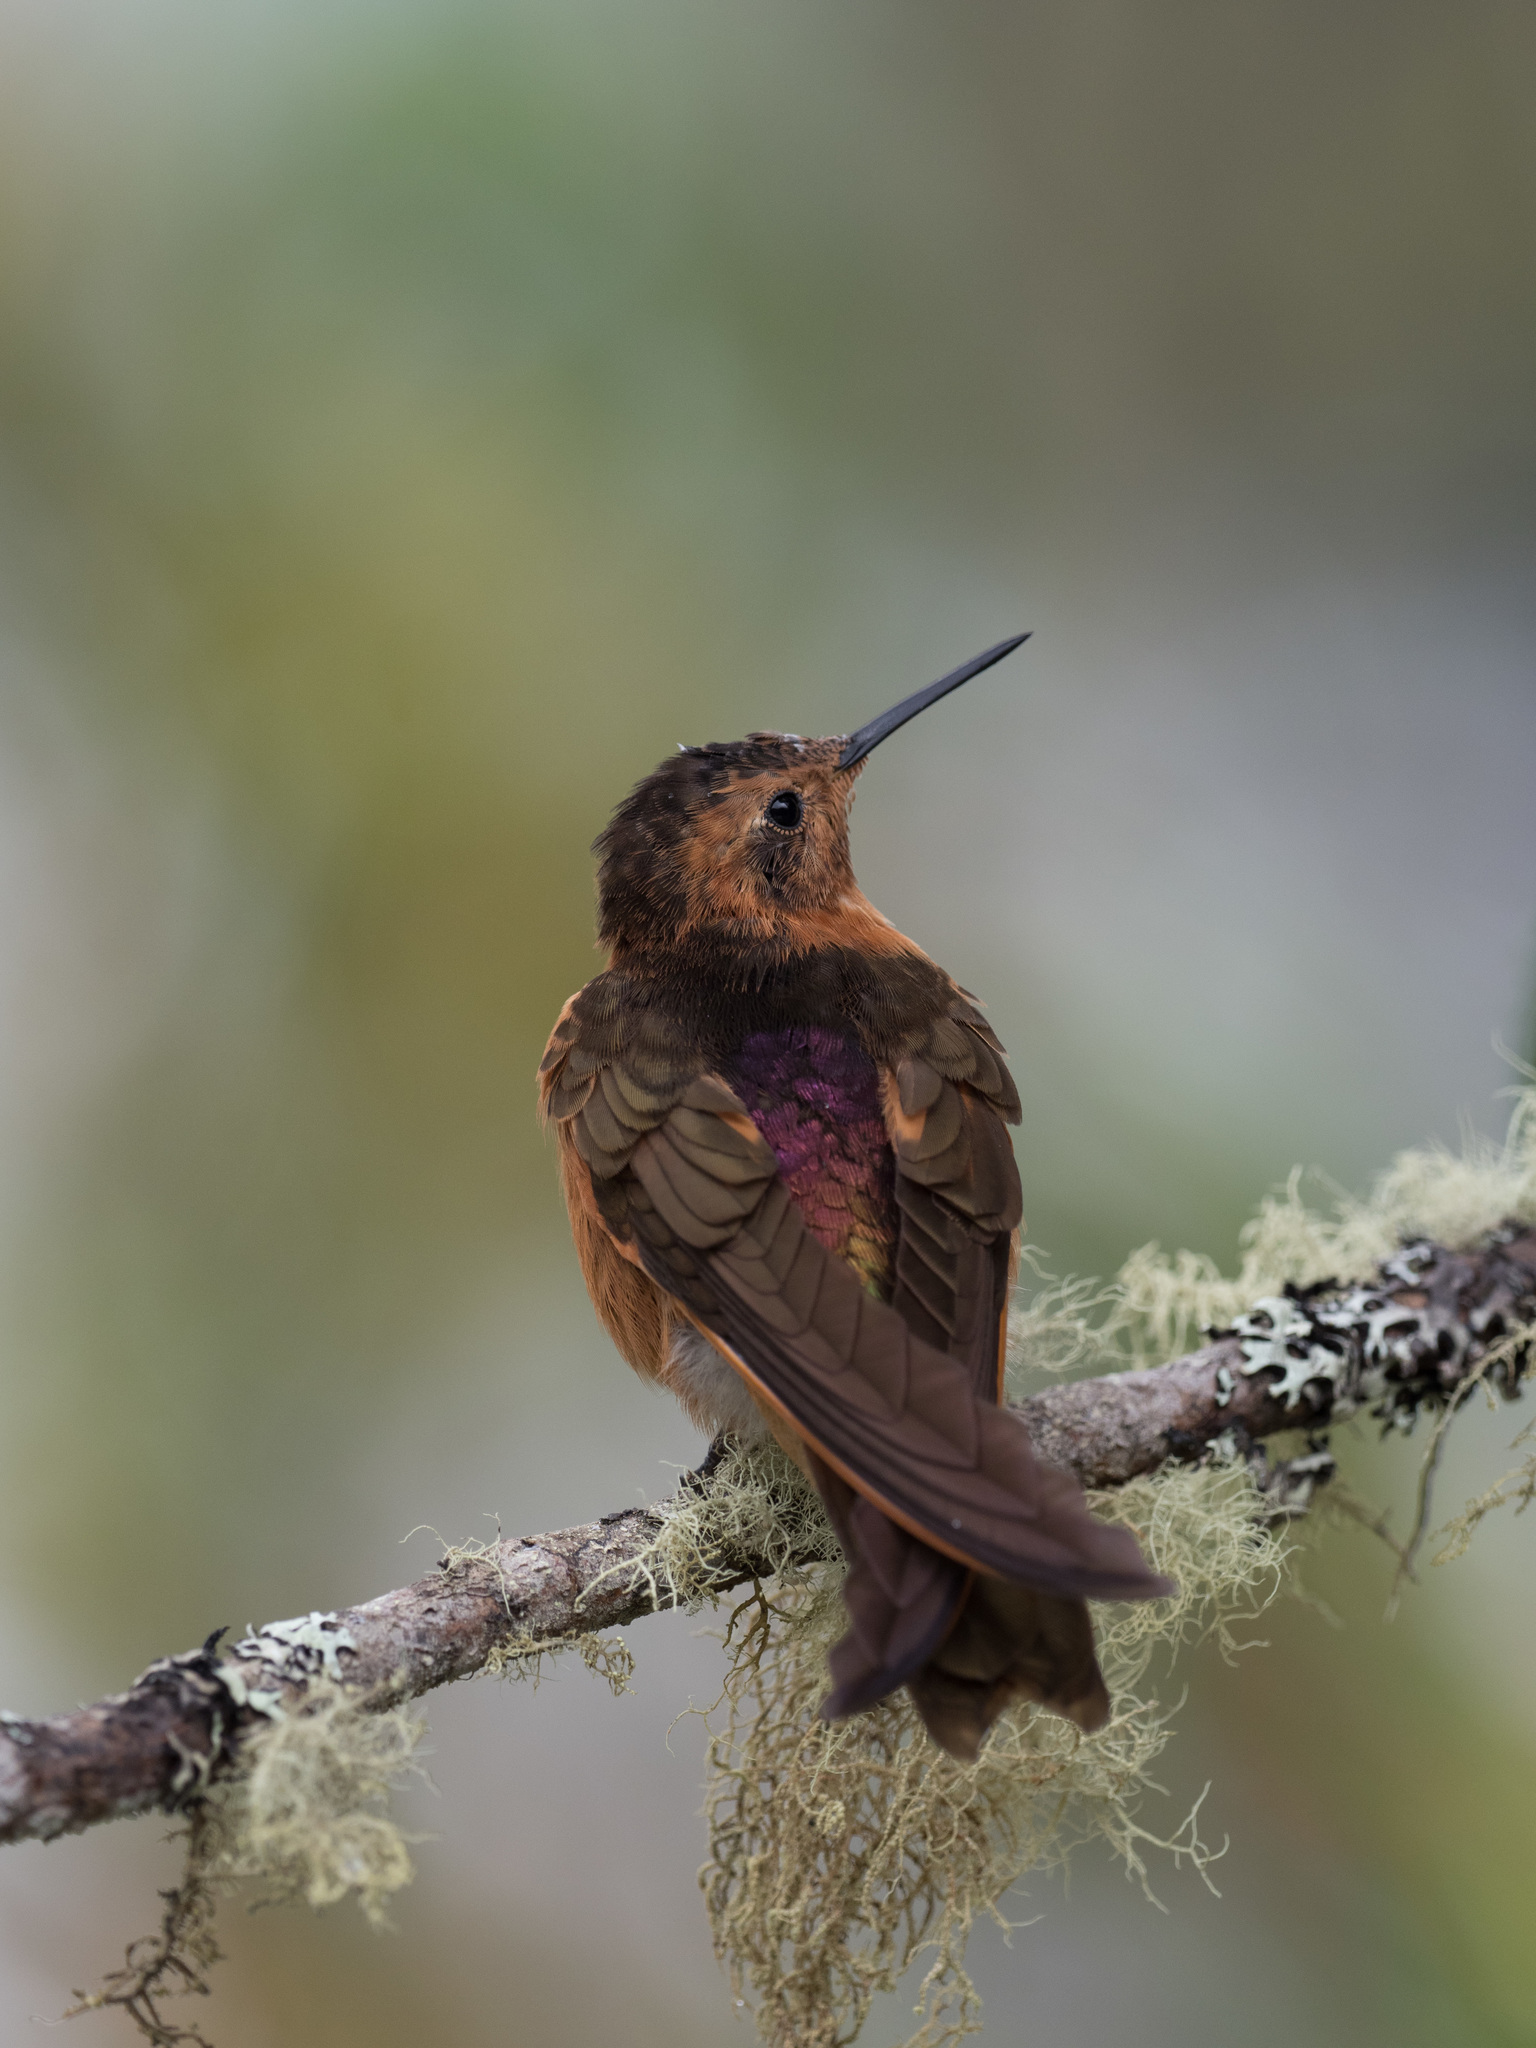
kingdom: Animalia
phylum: Chordata
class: Aves
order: Apodiformes
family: Trochilidae
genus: Aglaeactis
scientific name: Aglaeactis cupripennis
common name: Shining sunbeam
